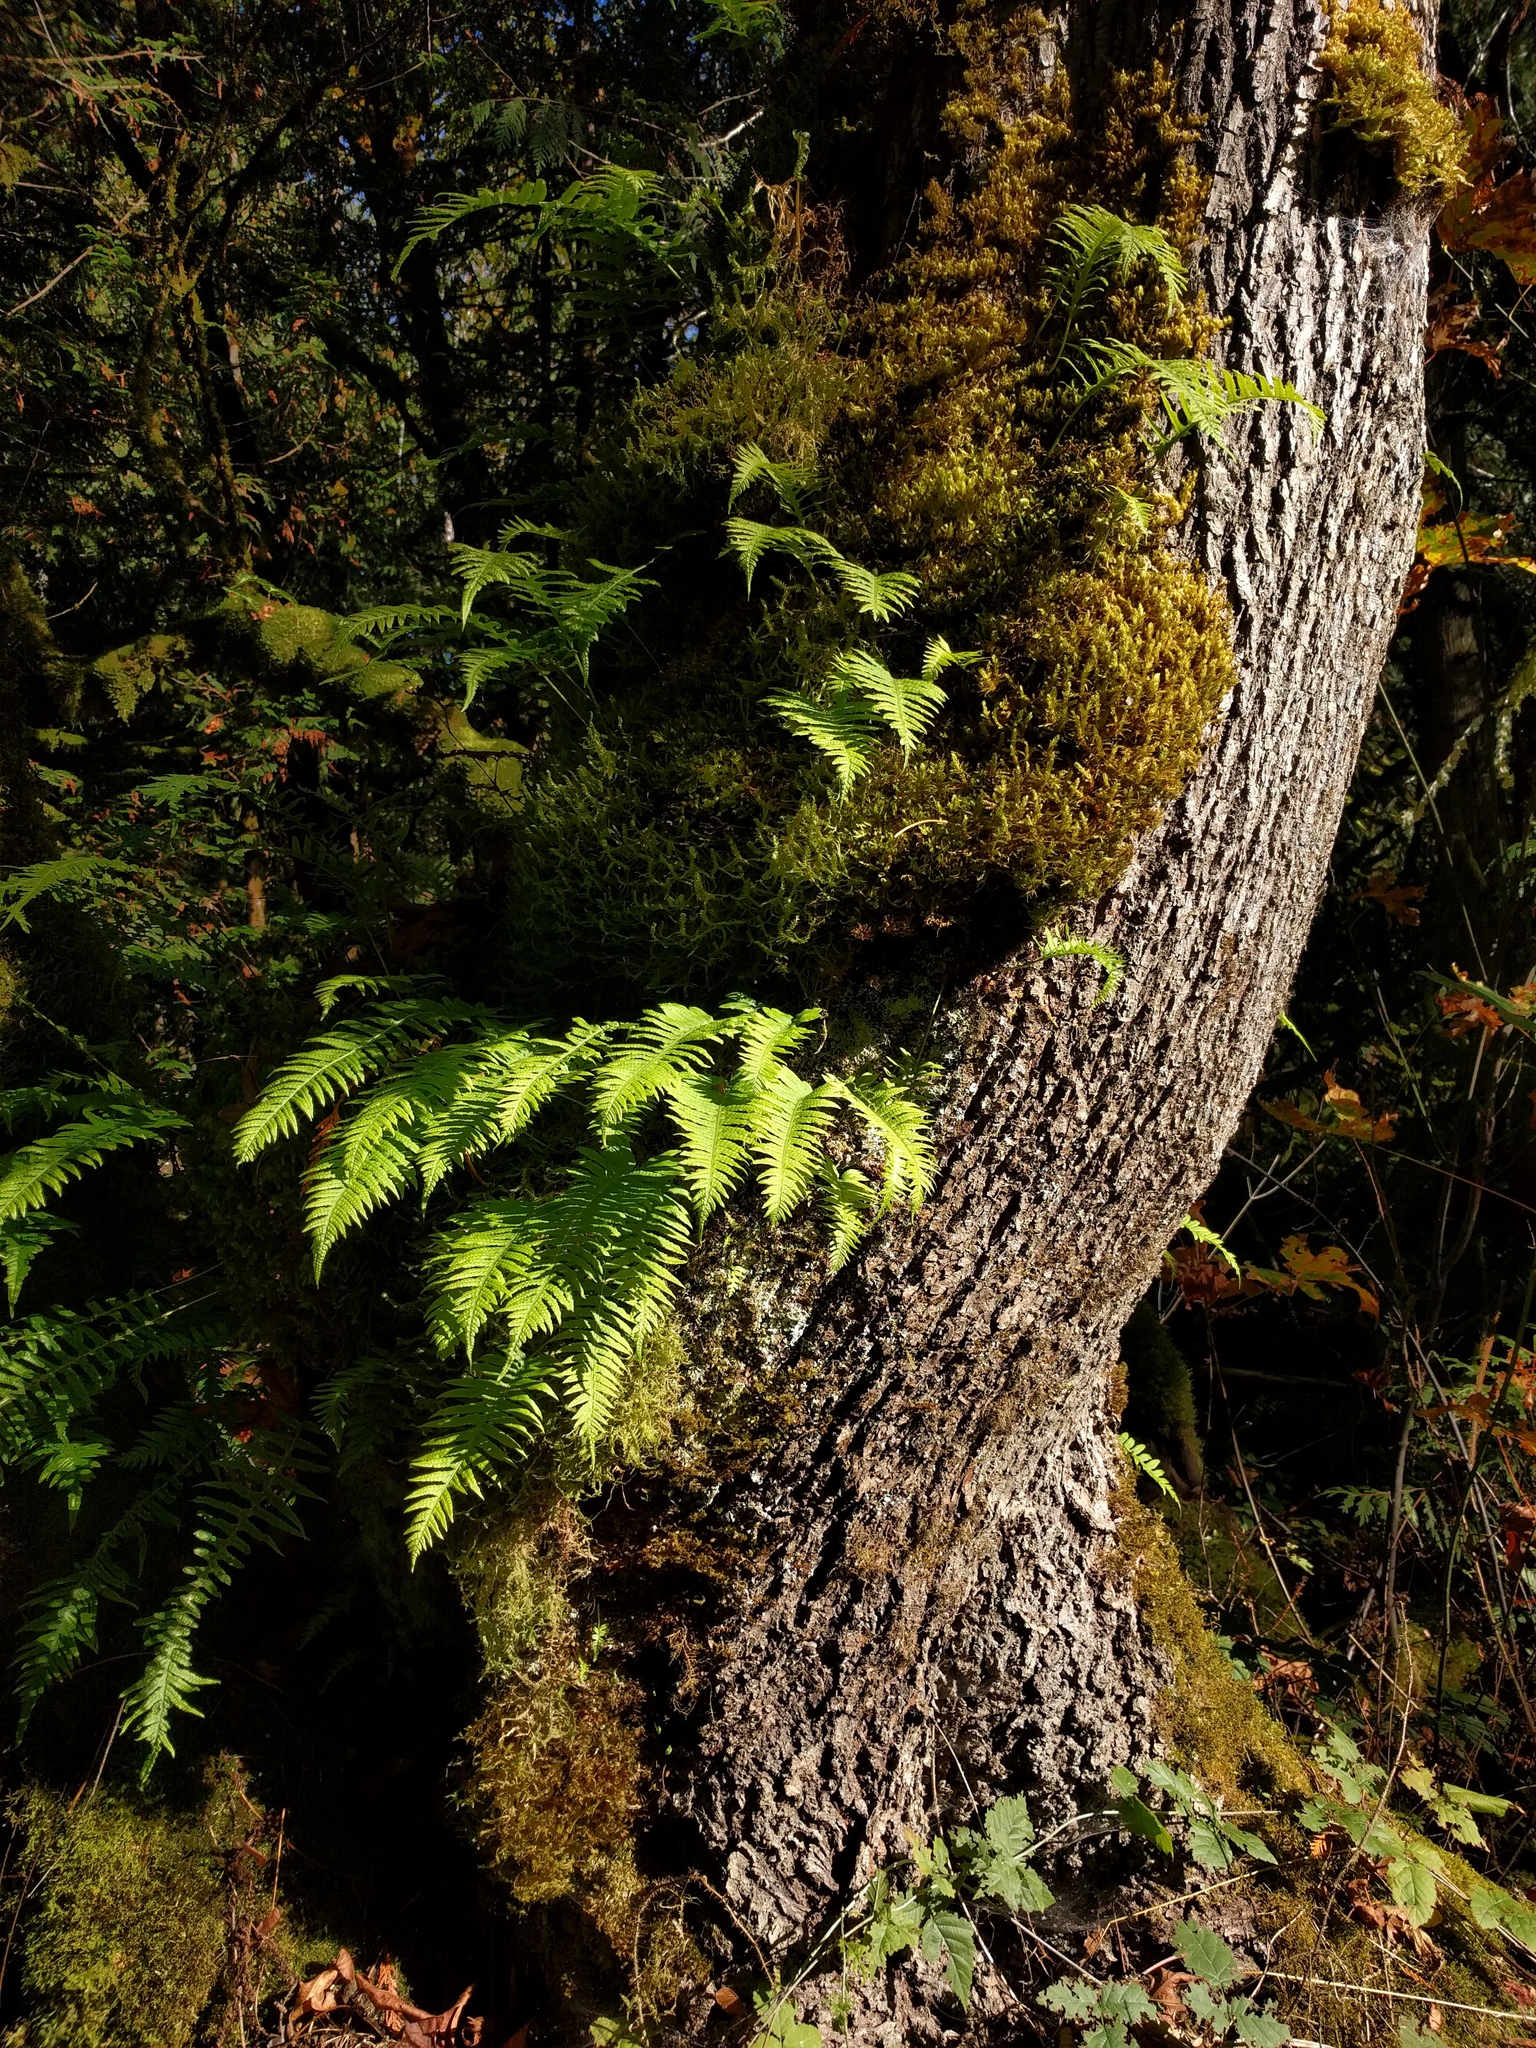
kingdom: Plantae
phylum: Tracheophyta
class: Polypodiopsida
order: Polypodiales
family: Polypodiaceae
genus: Polypodium
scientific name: Polypodium glycyrrhiza
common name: Licorice fern
